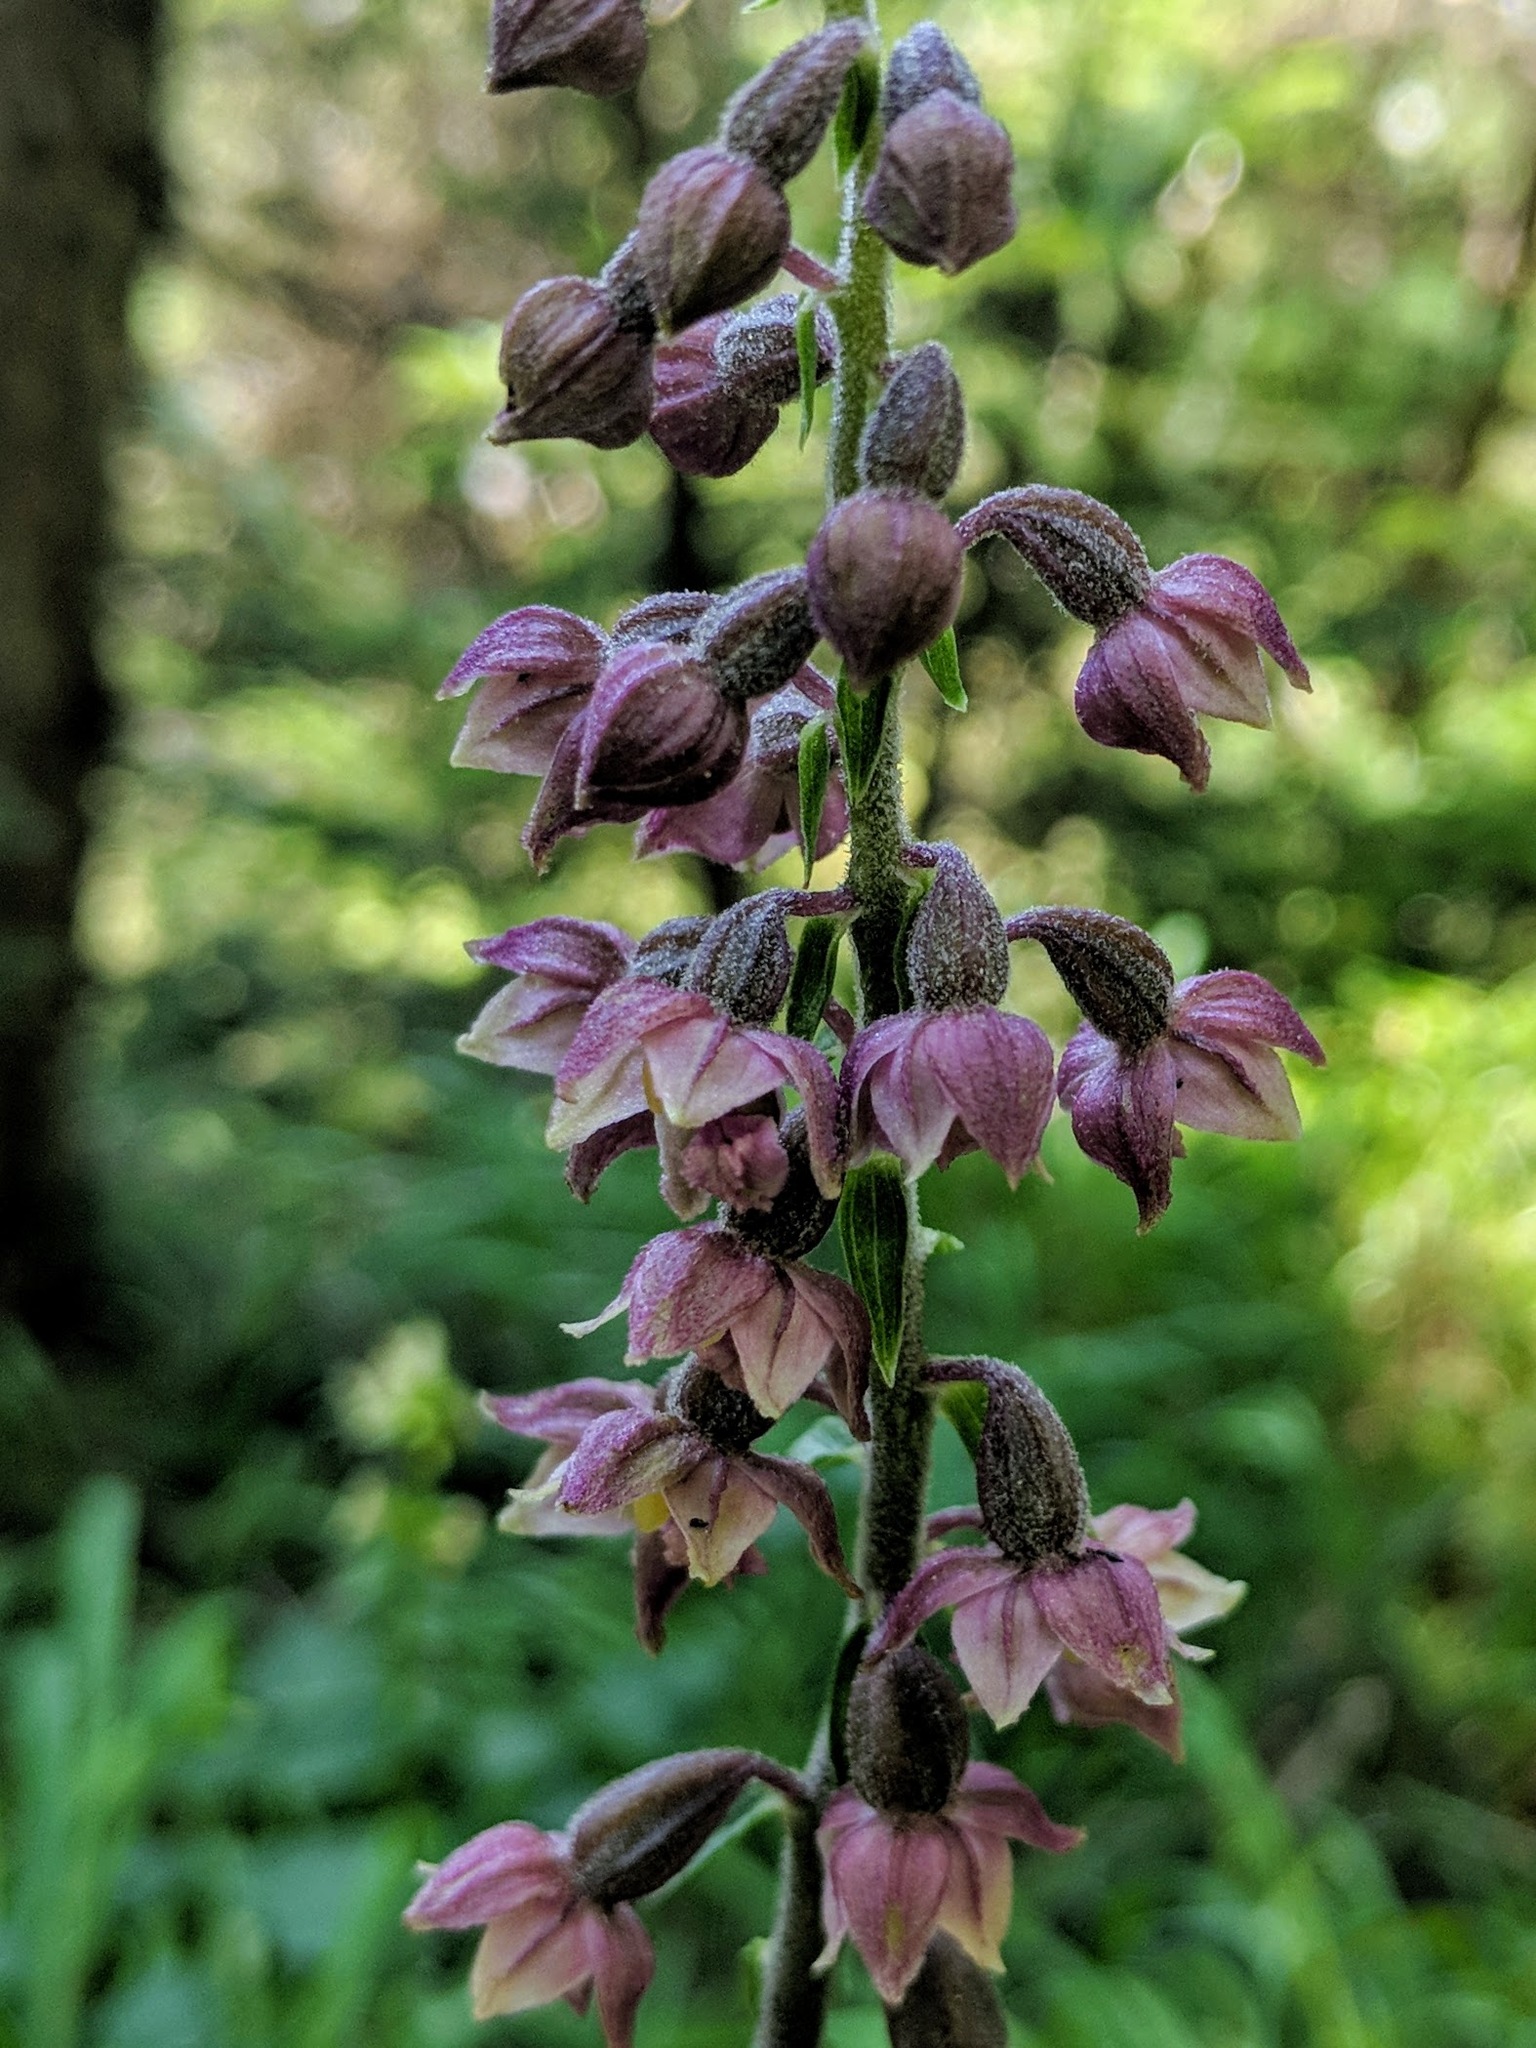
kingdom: Plantae
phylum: Tracheophyta
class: Liliopsida
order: Asparagales
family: Orchidaceae
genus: Epipactis
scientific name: Epipactis atrorubens
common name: Dark-red helleborine
